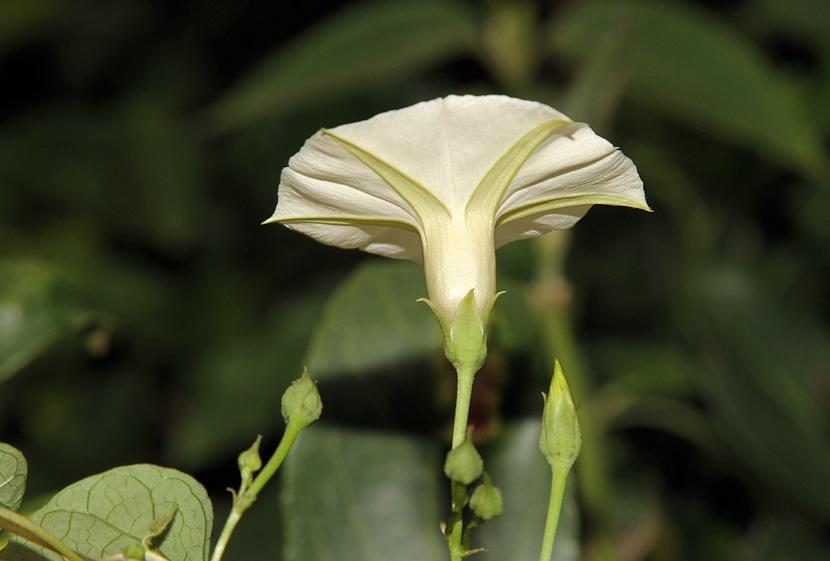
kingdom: Plantae
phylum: Tracheophyta
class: Magnoliopsida
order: Solanales
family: Convolvulaceae
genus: Ipomoea
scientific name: Ipomoea obscura
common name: Obscure morning-glory
